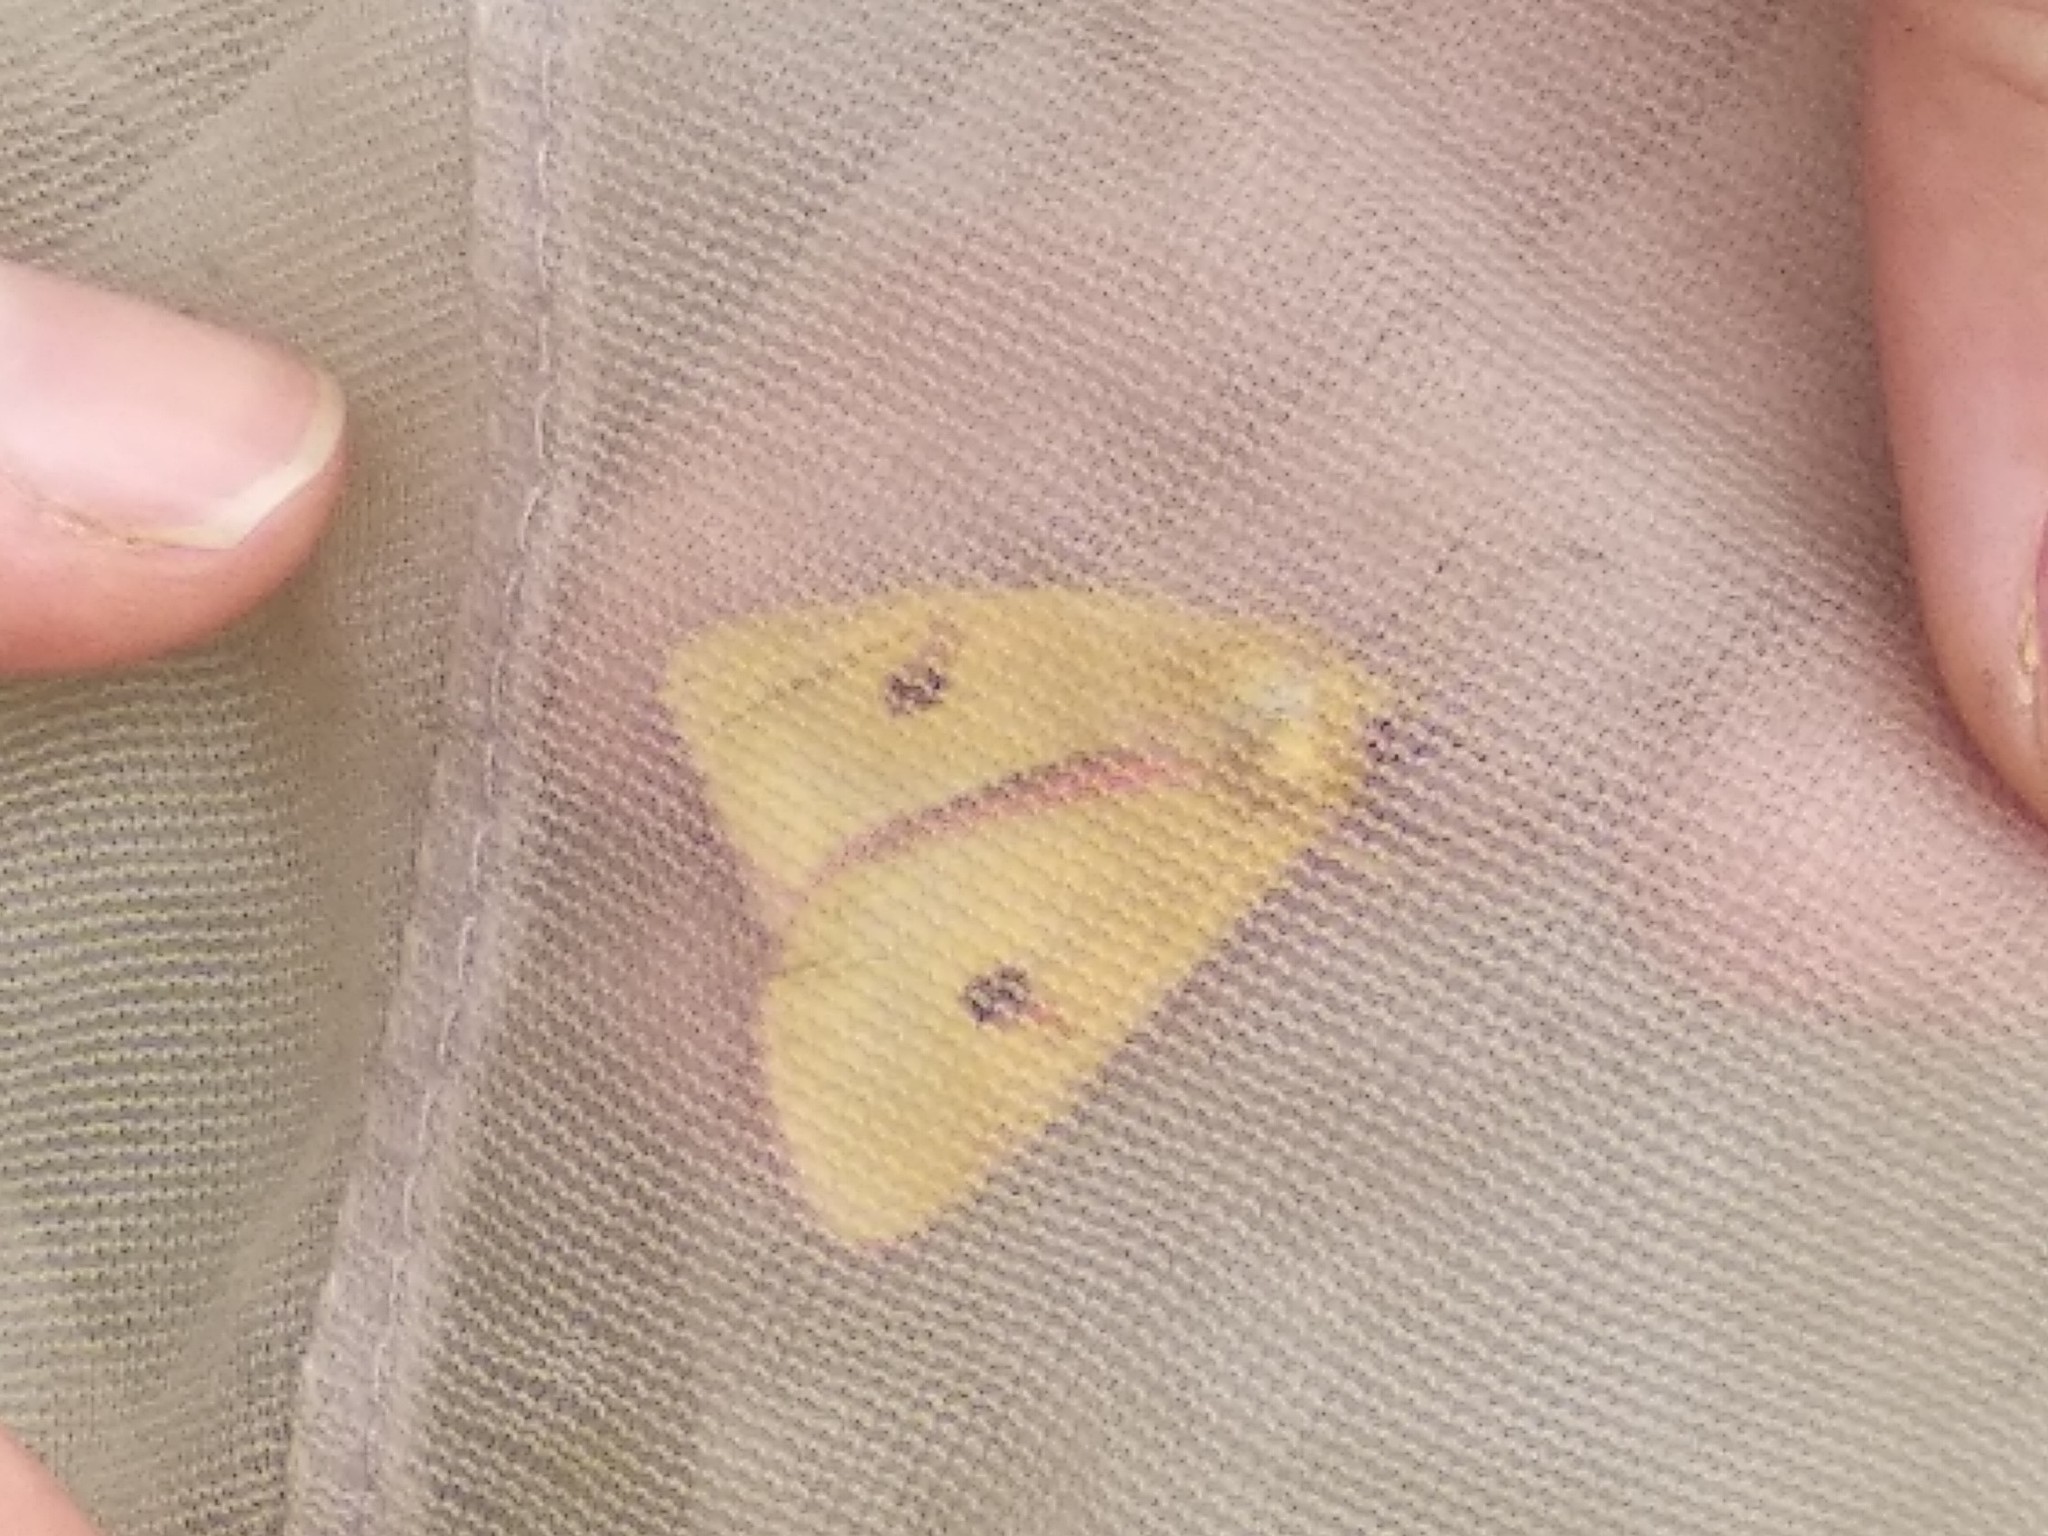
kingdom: Animalia
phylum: Arthropoda
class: Insecta
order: Lepidoptera
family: Erebidae
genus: Diacrisia
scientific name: Diacrisia sannio
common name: Clouded buff
